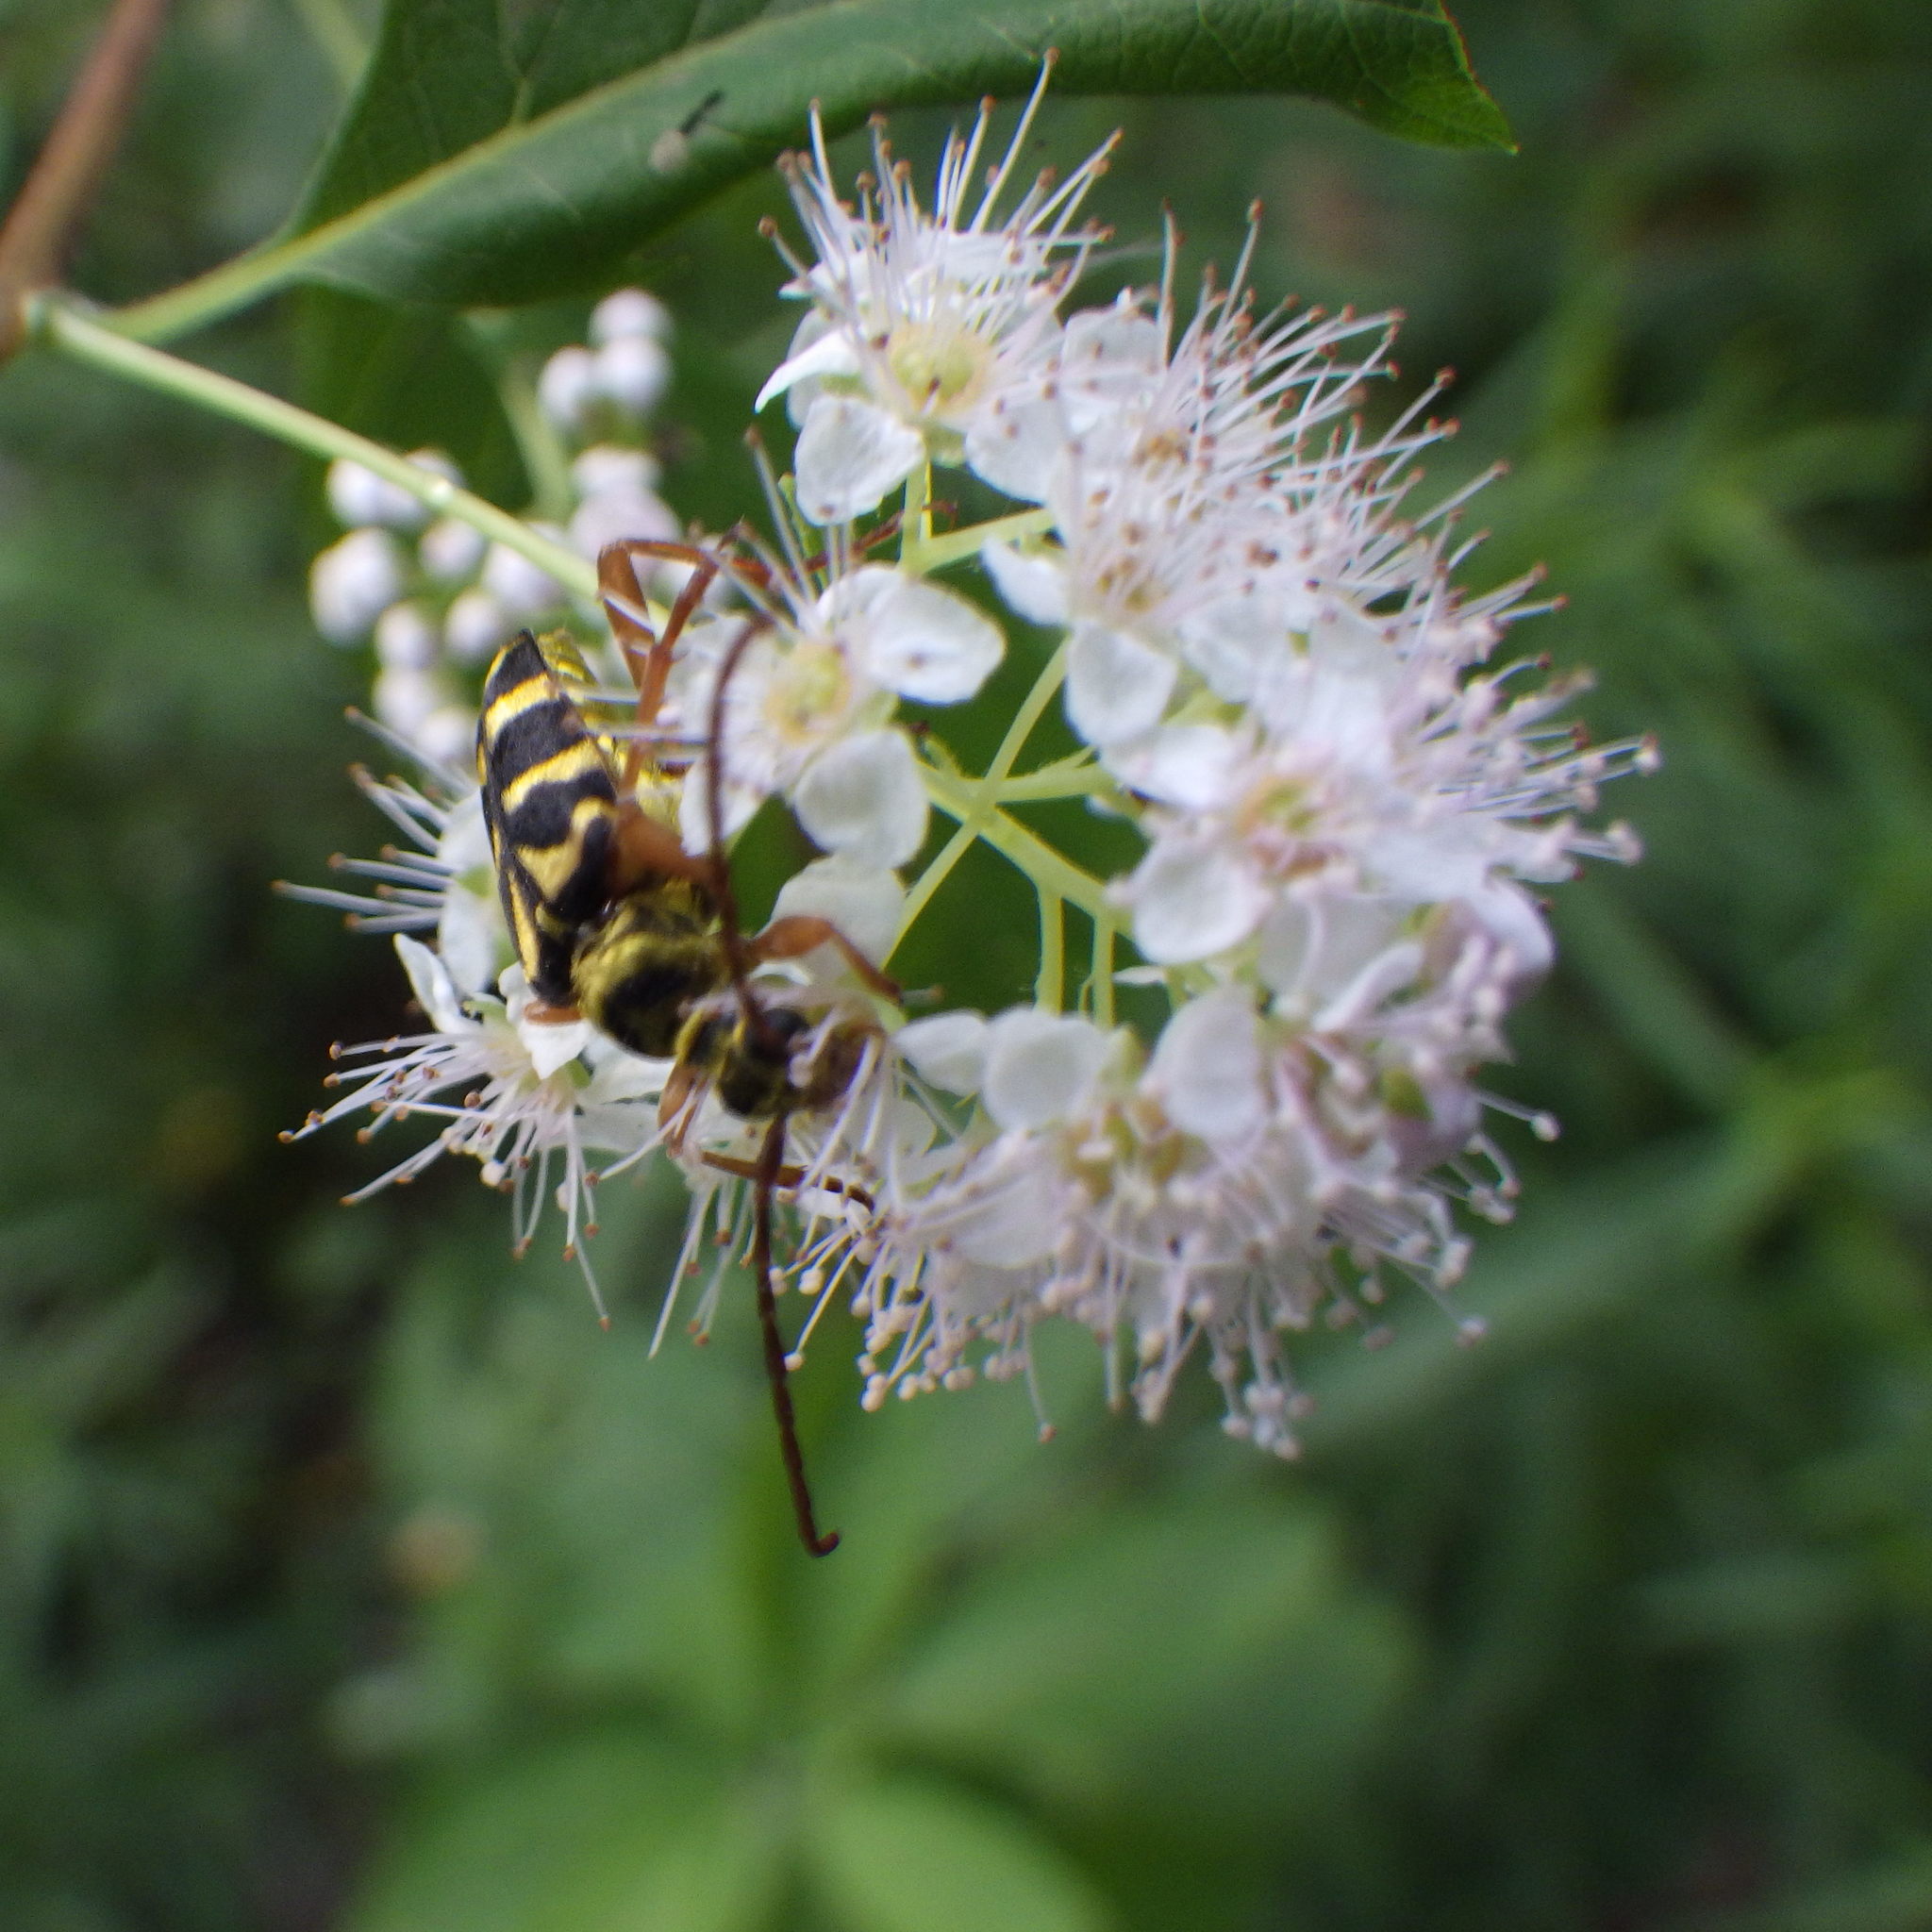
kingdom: Animalia
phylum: Arthropoda
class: Insecta
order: Coleoptera
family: Cerambycidae
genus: Strophiona
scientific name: Strophiona nitens
